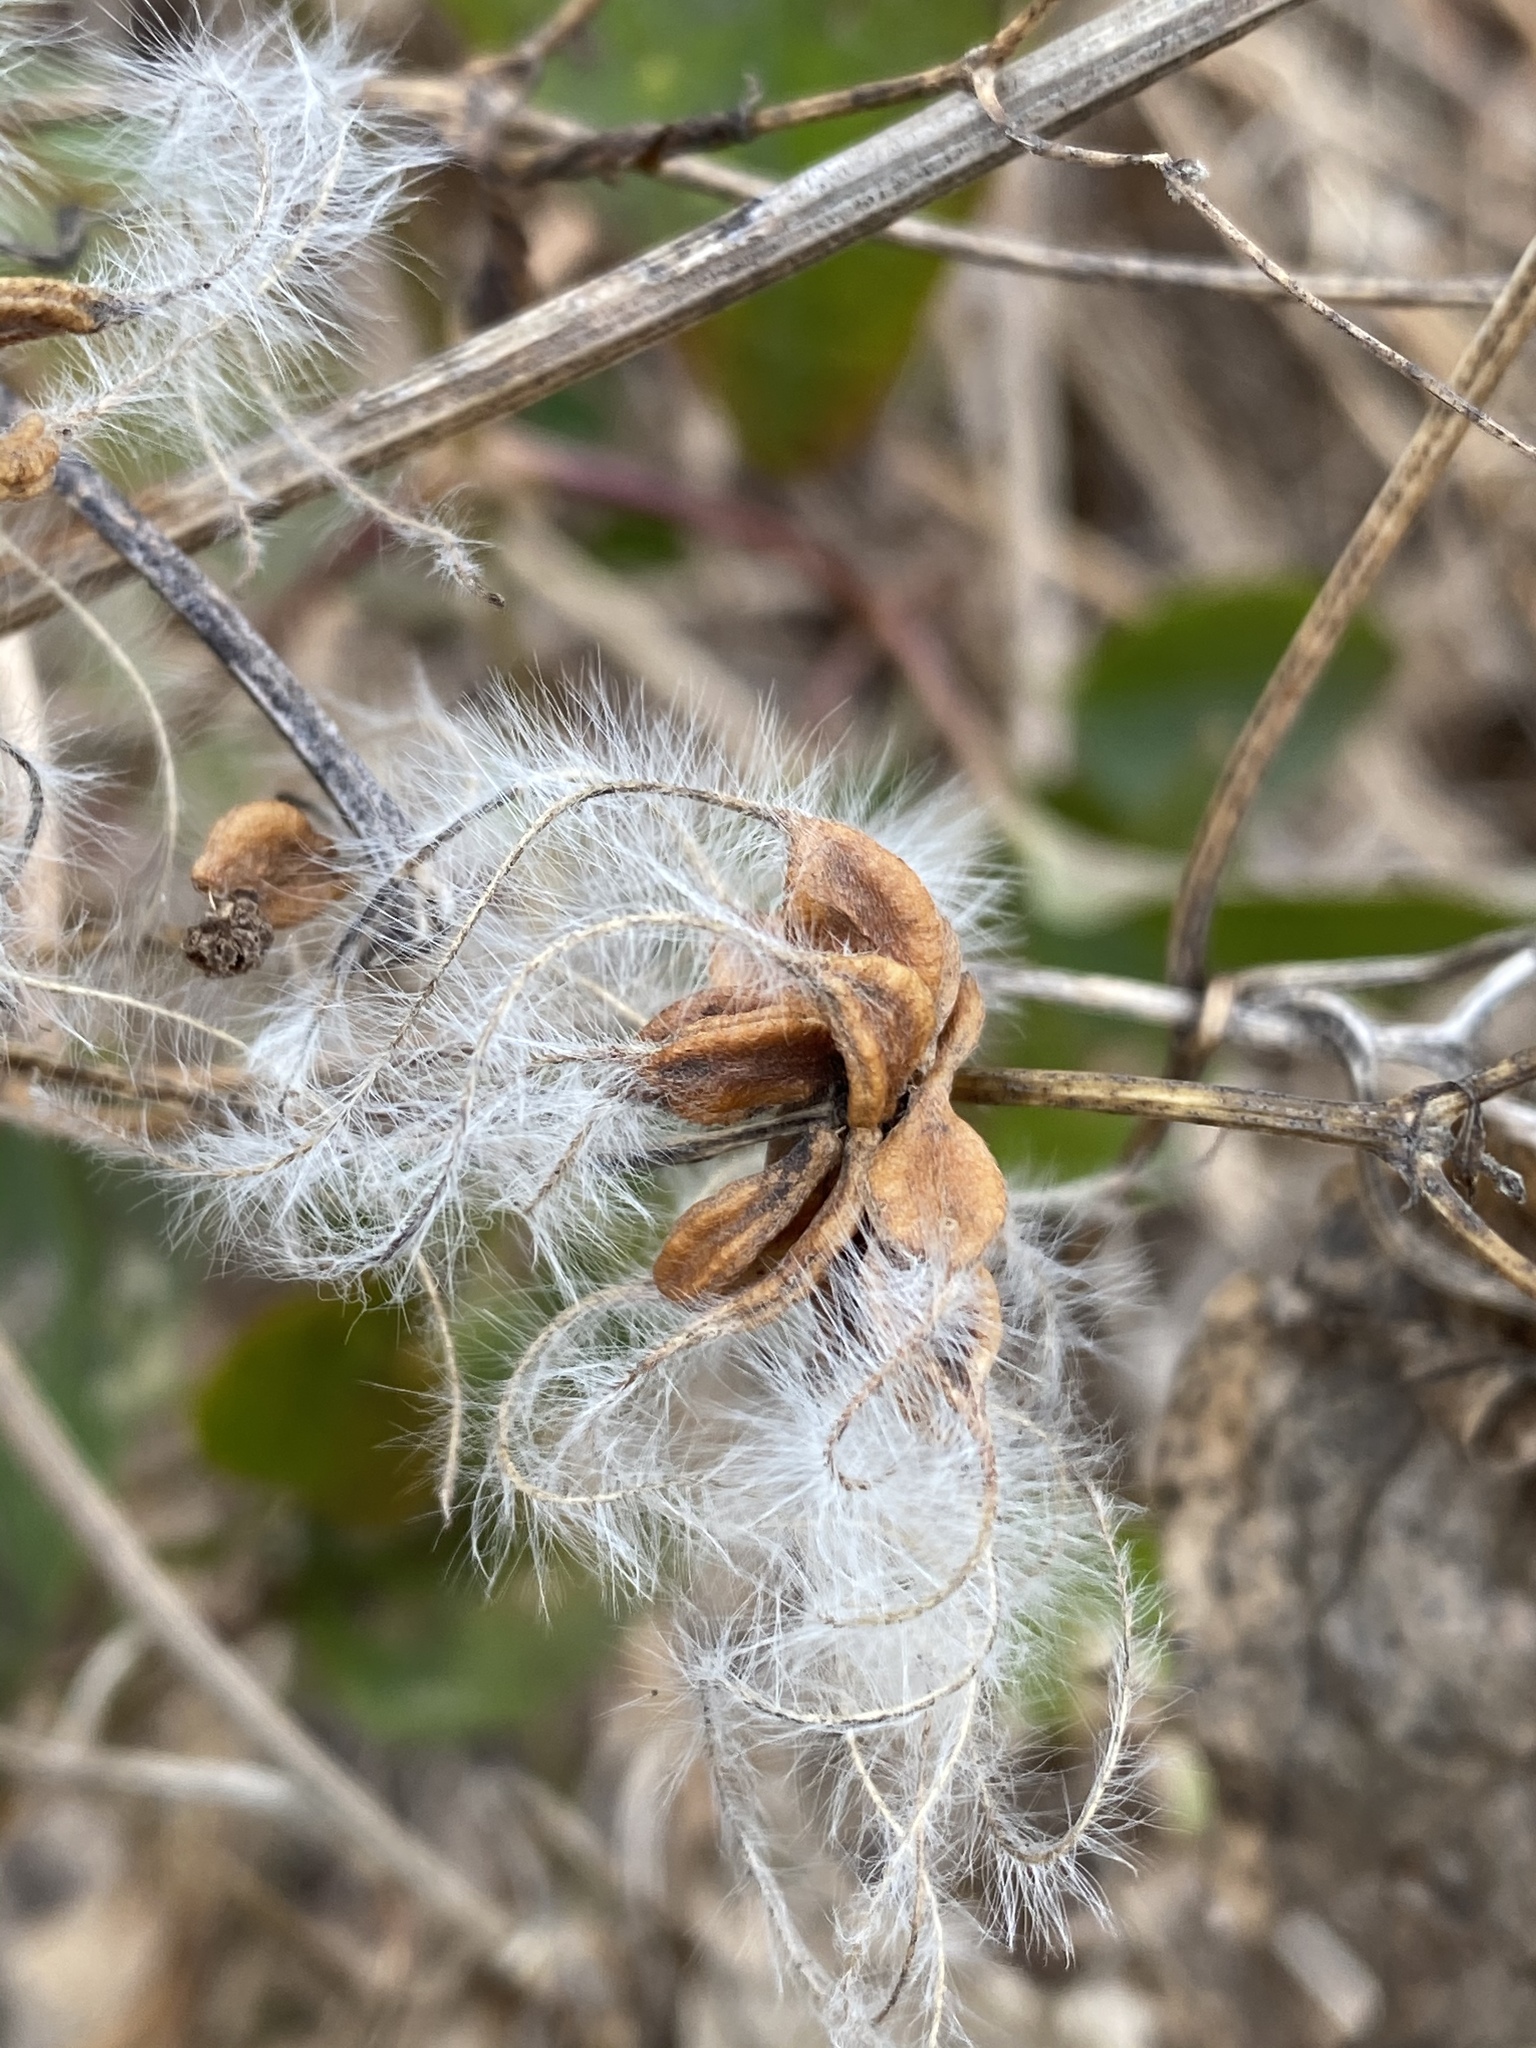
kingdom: Plantae
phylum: Tracheophyta
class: Magnoliopsida
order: Ranunculales
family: Ranunculaceae
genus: Clematis
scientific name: Clematis terniflora
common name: Sweet autumn clematis
